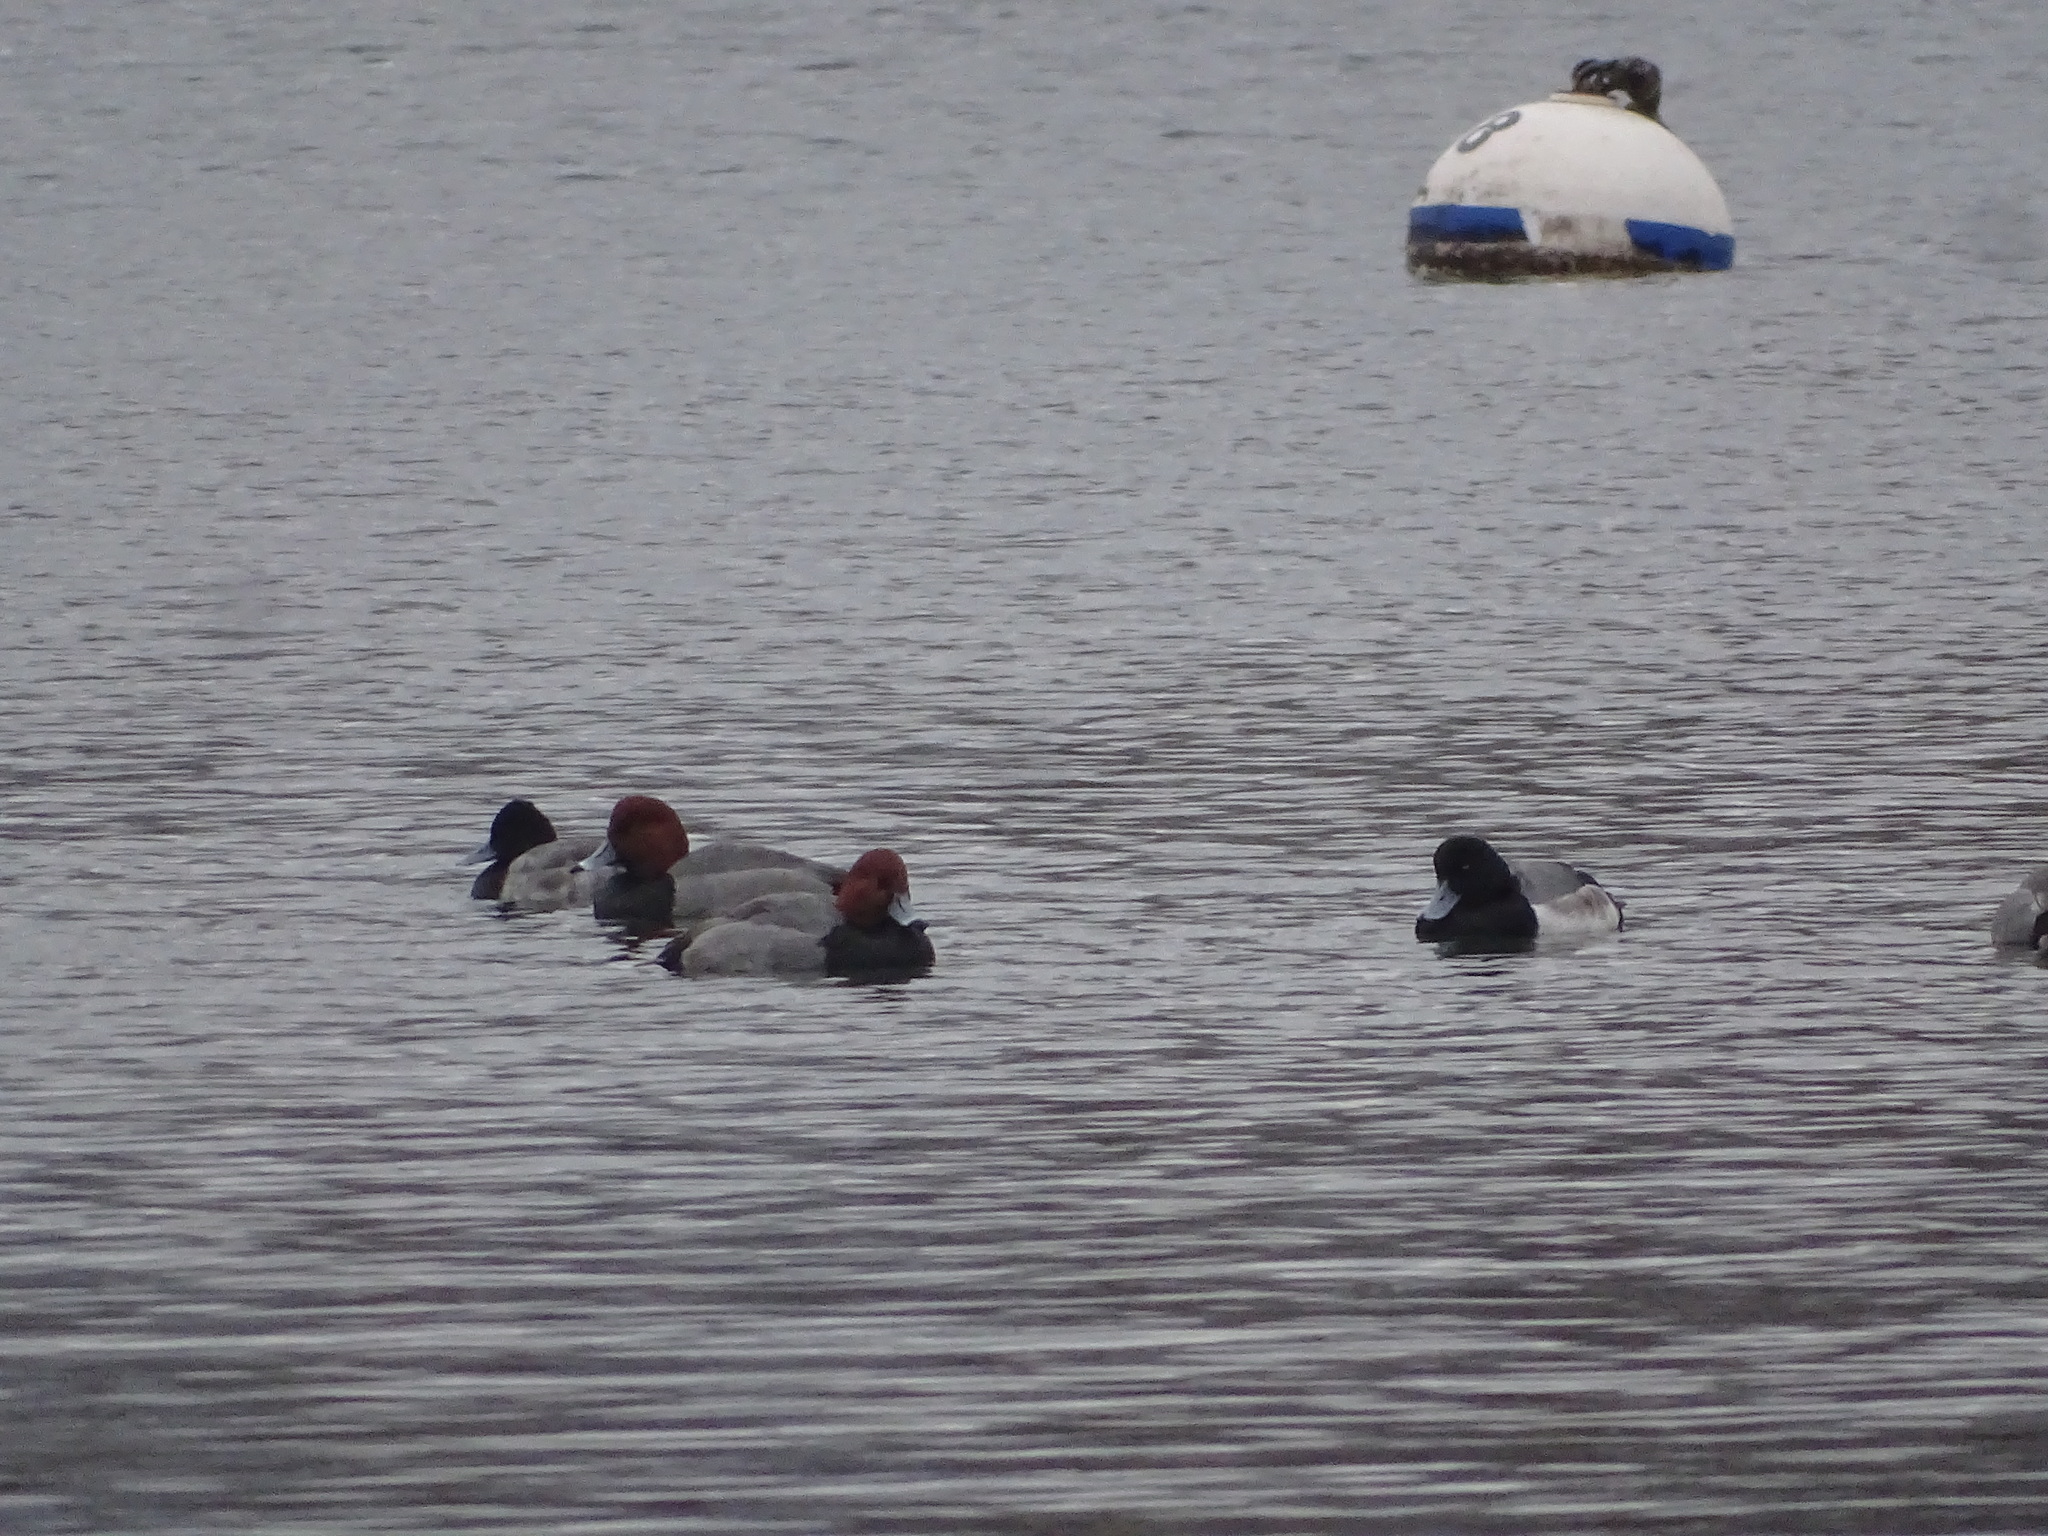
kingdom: Animalia
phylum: Chordata
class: Aves
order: Anseriformes
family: Anatidae
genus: Aythya
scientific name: Aythya americana
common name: Redhead
